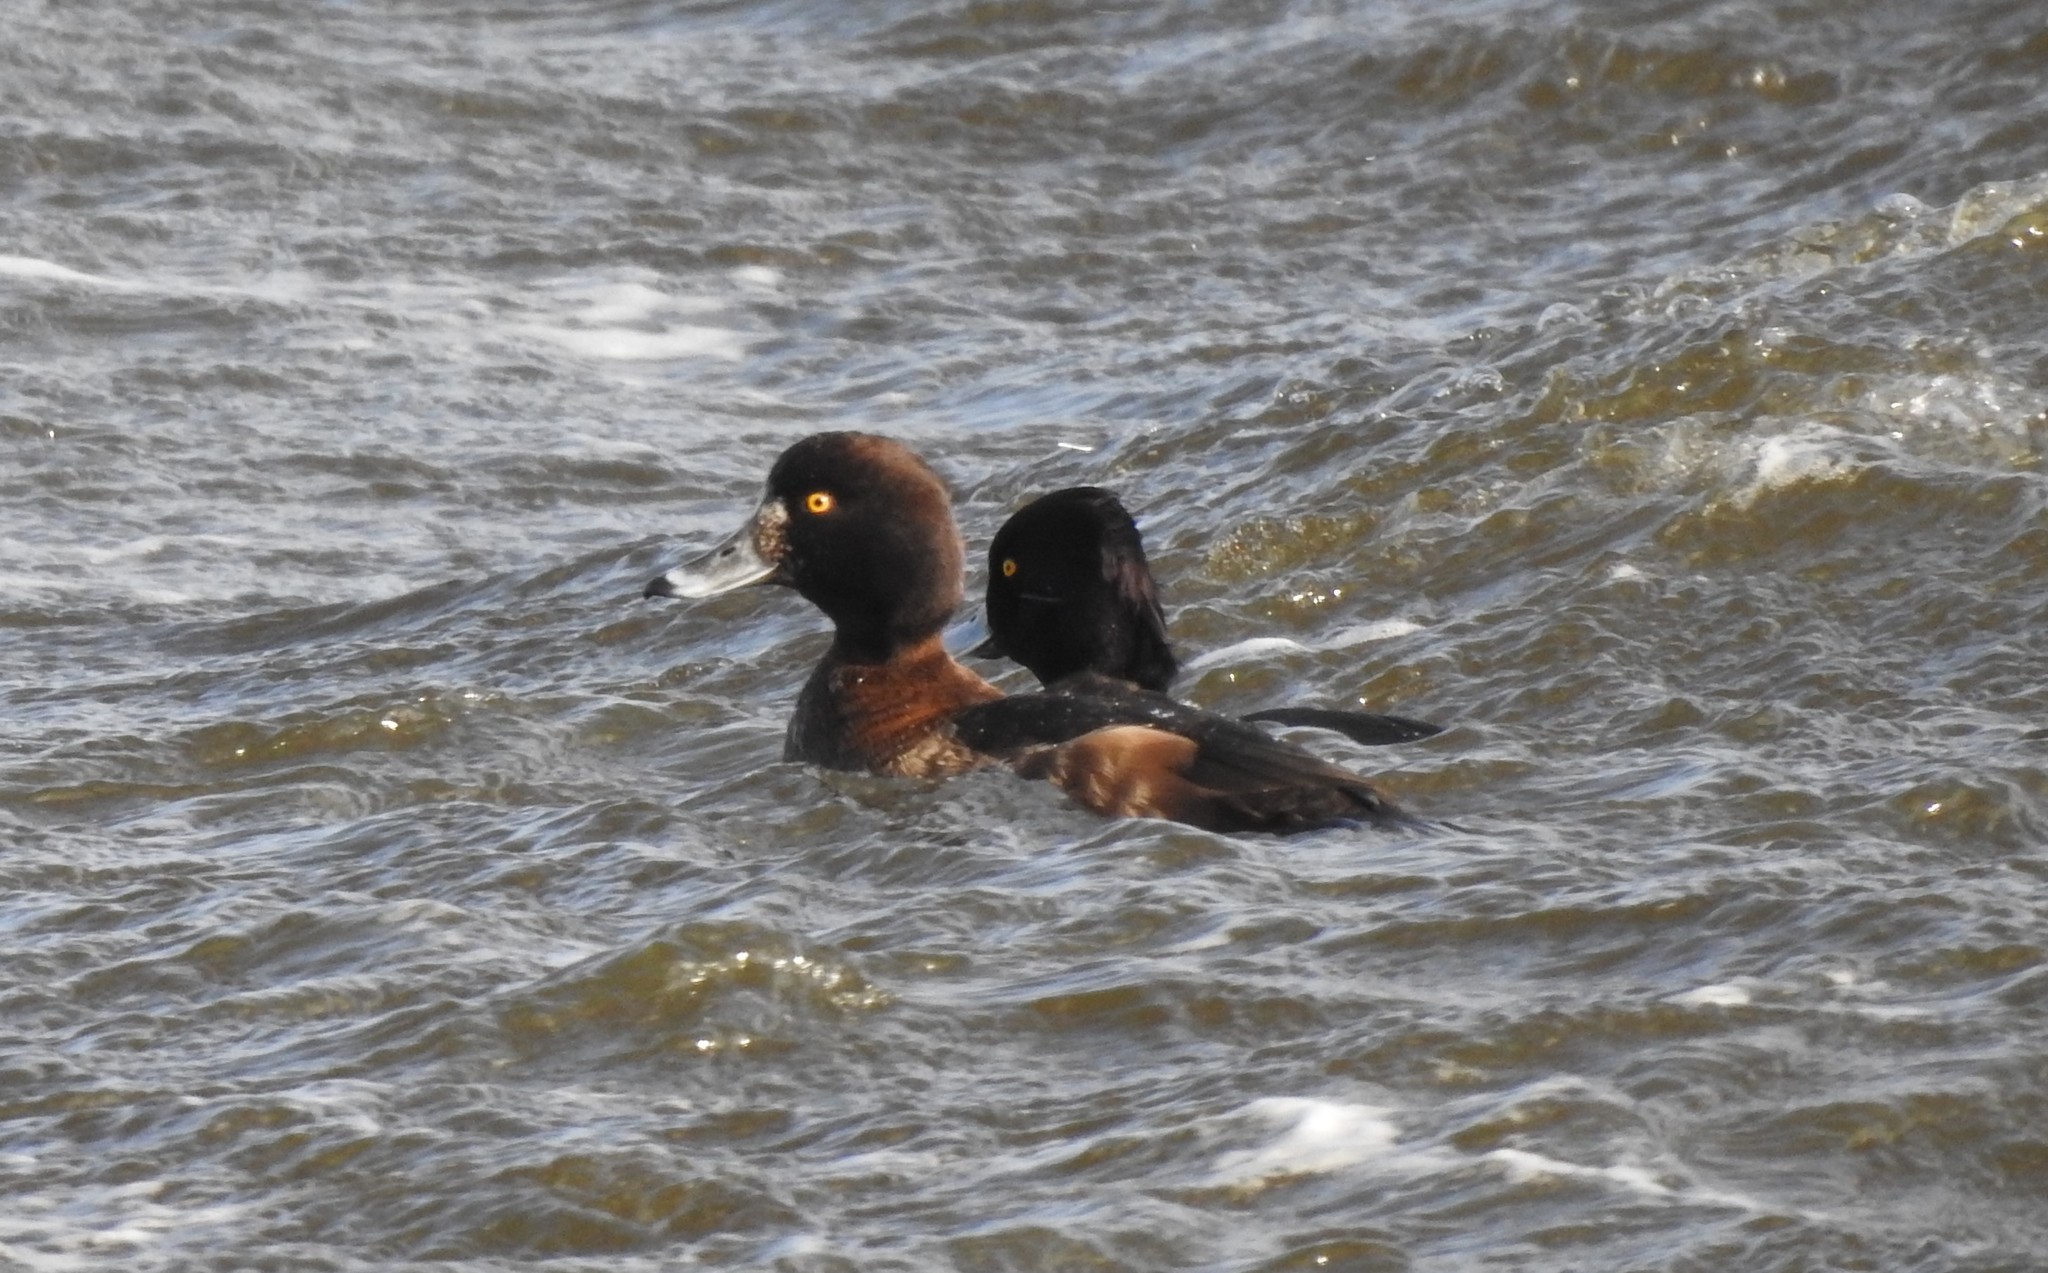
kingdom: Animalia
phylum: Chordata
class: Aves
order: Anseriformes
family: Anatidae
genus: Aythya
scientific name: Aythya fuligula
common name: Tufted duck
